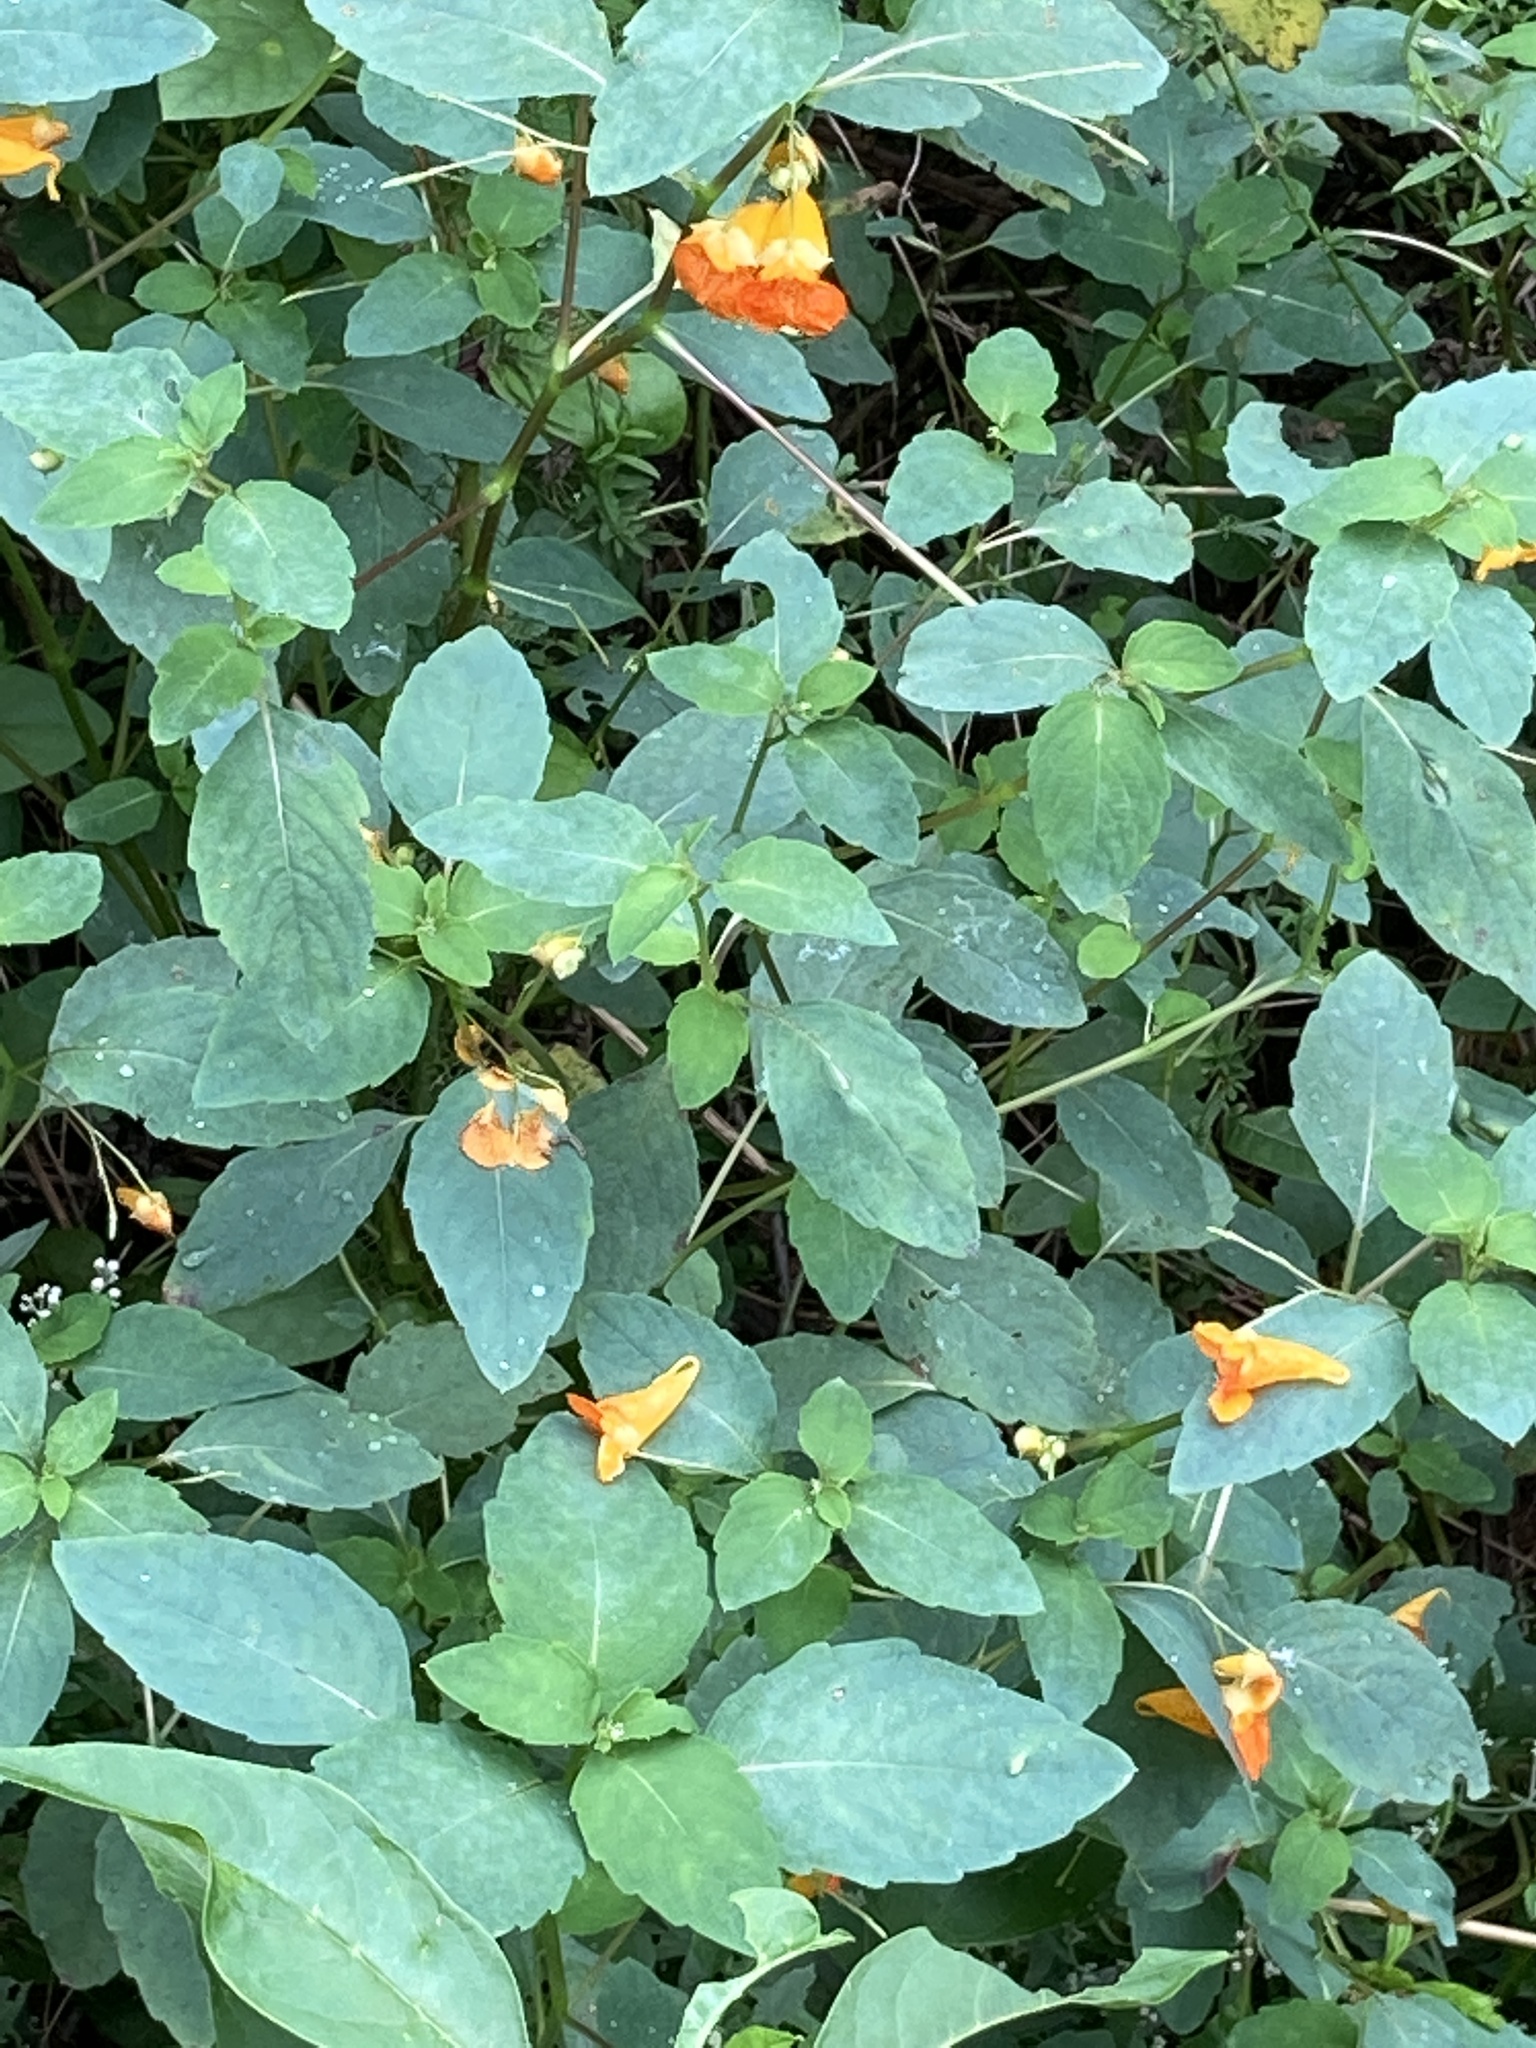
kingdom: Plantae
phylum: Tracheophyta
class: Magnoliopsida
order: Ericales
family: Balsaminaceae
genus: Impatiens
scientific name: Impatiens capensis
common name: Orange balsam
